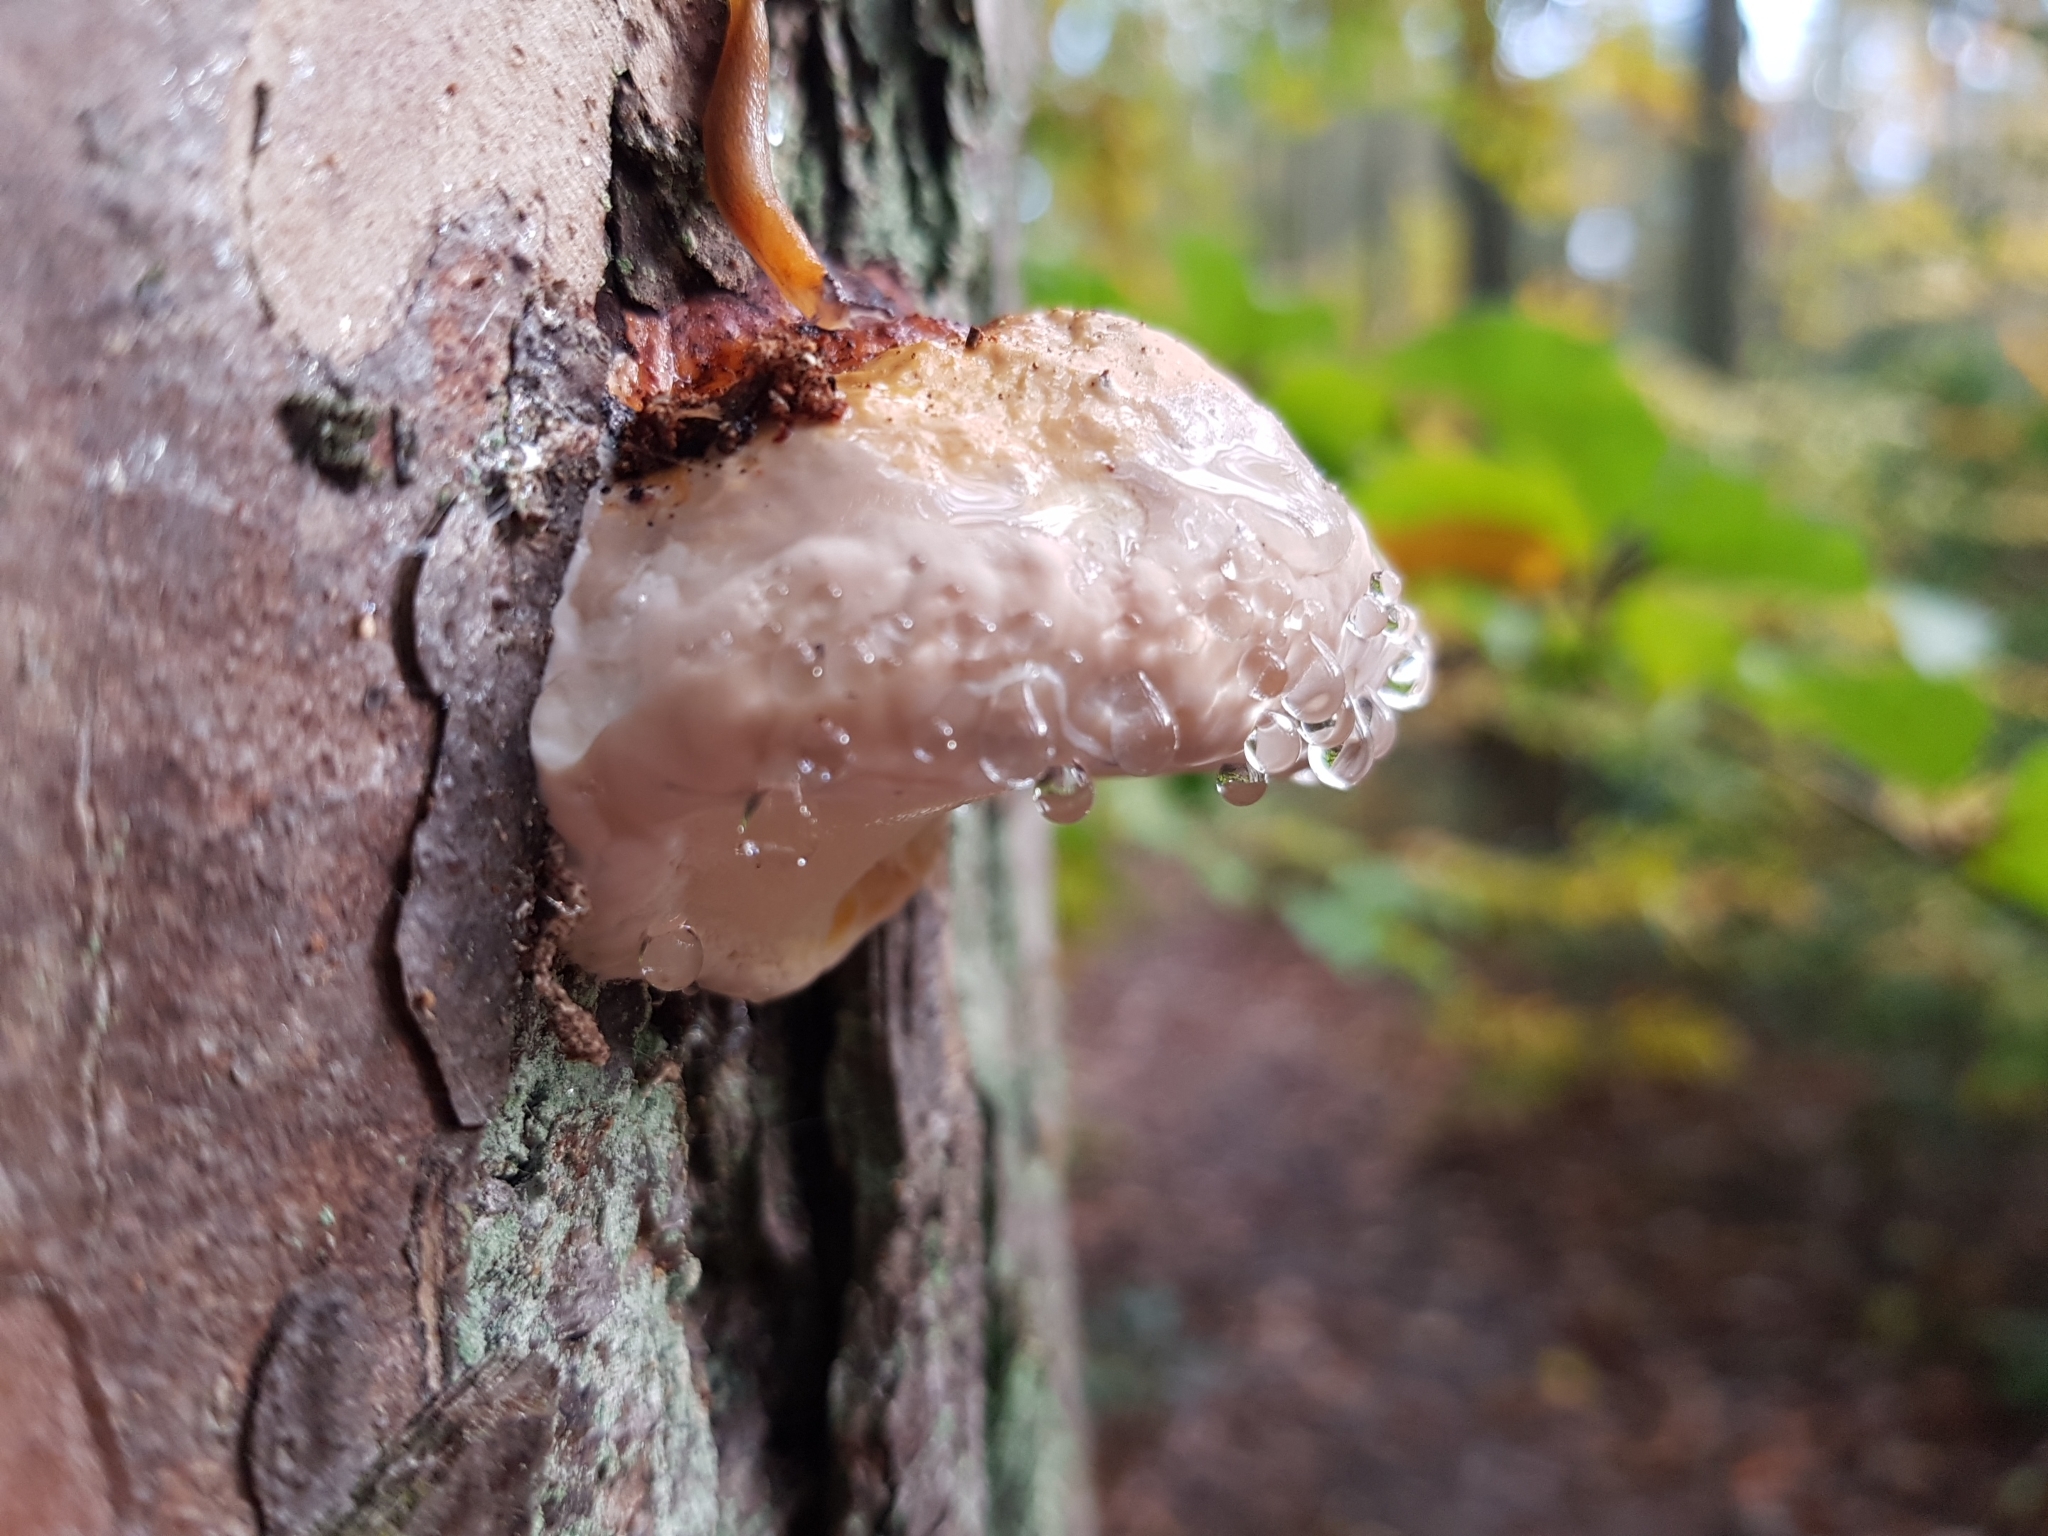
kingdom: Fungi
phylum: Basidiomycota
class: Agaricomycetes
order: Polyporales
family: Fomitopsidaceae
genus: Fomitopsis
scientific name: Fomitopsis pinicola
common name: Red-belted bracket
